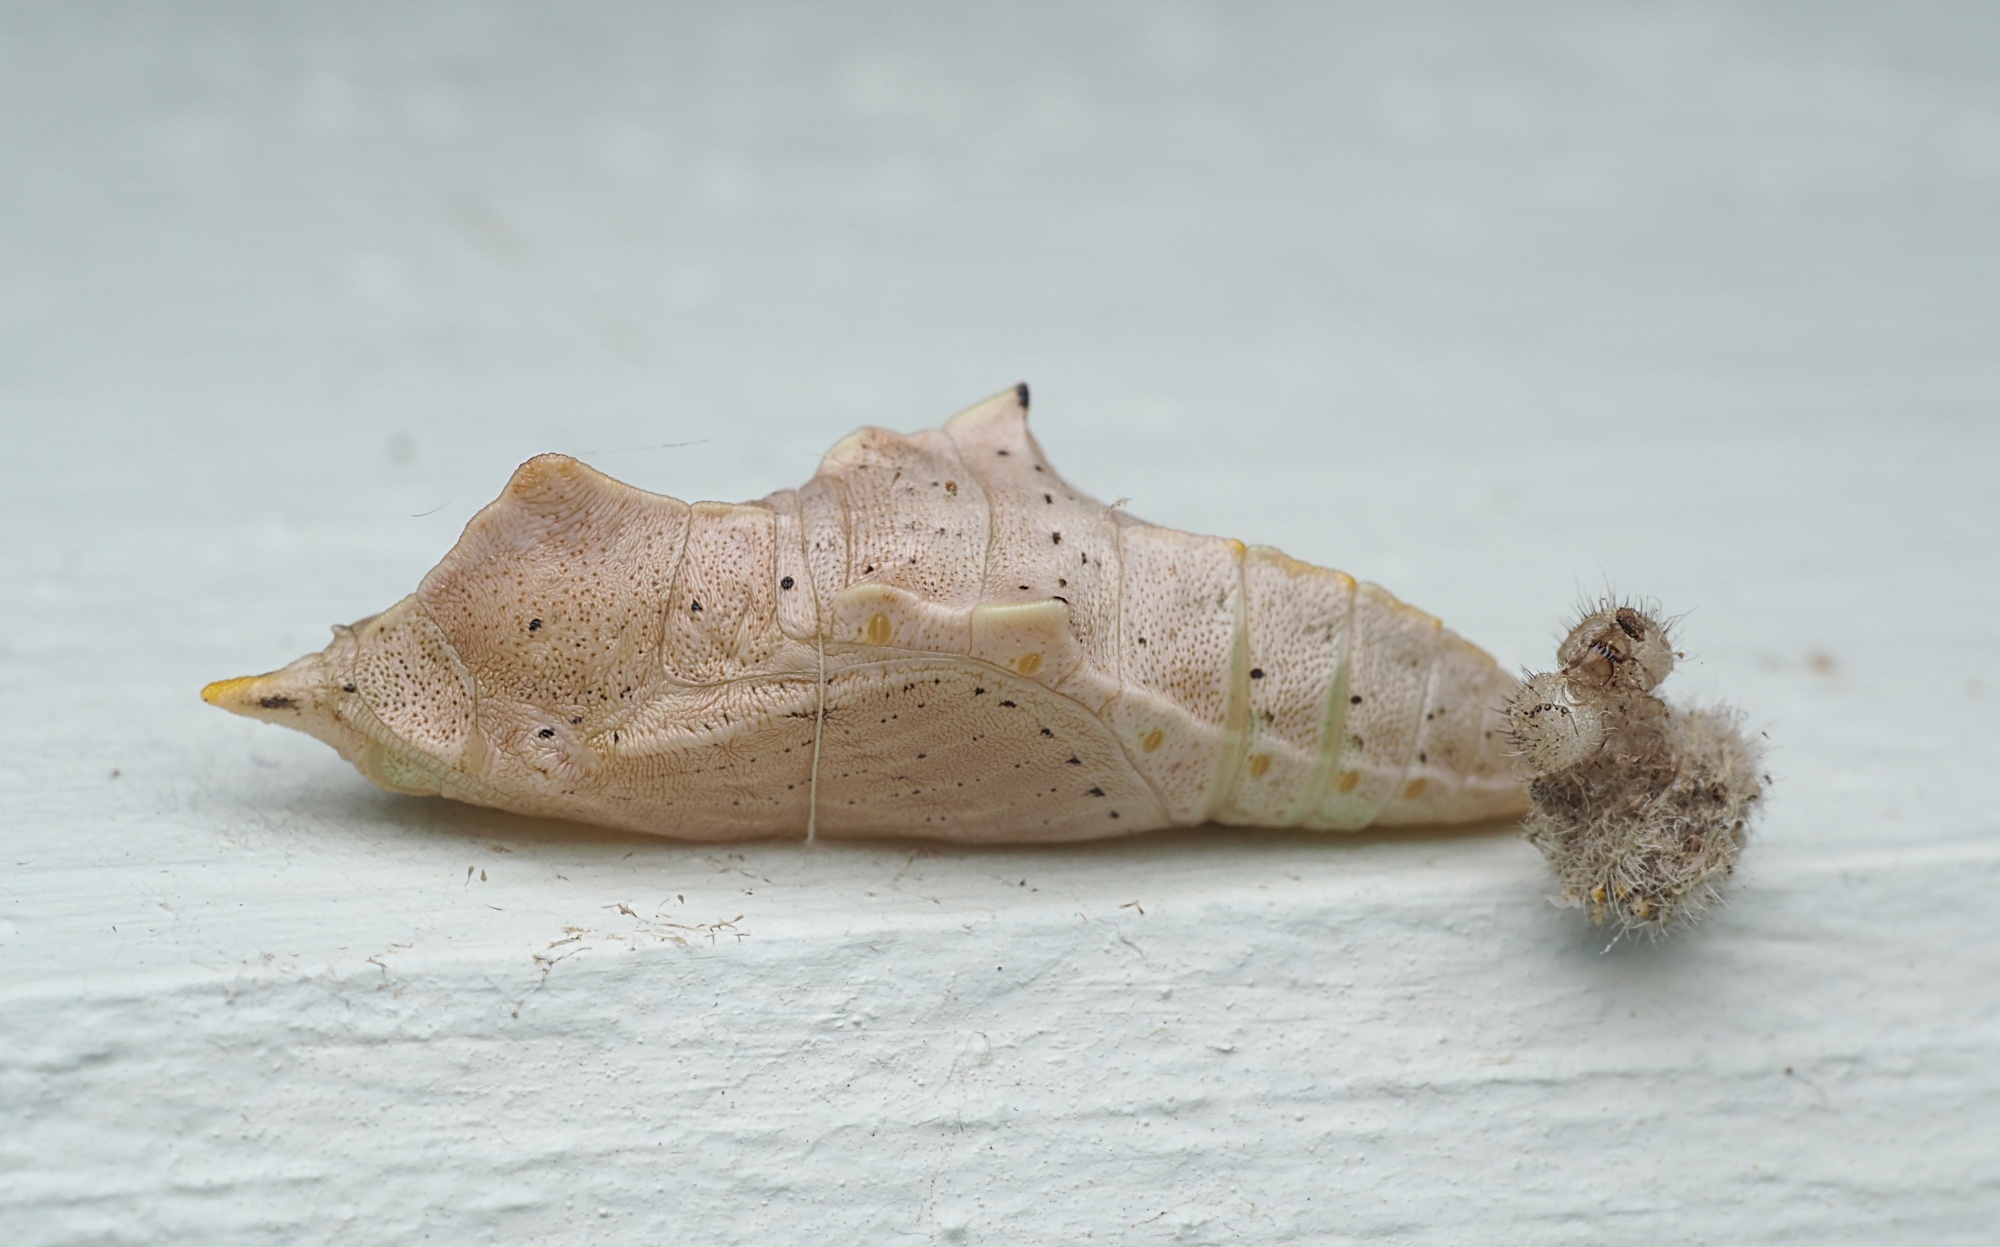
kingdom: Animalia
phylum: Arthropoda
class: Insecta
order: Lepidoptera
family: Pieridae
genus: Pieris
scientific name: Pieris rapae
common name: Small white
